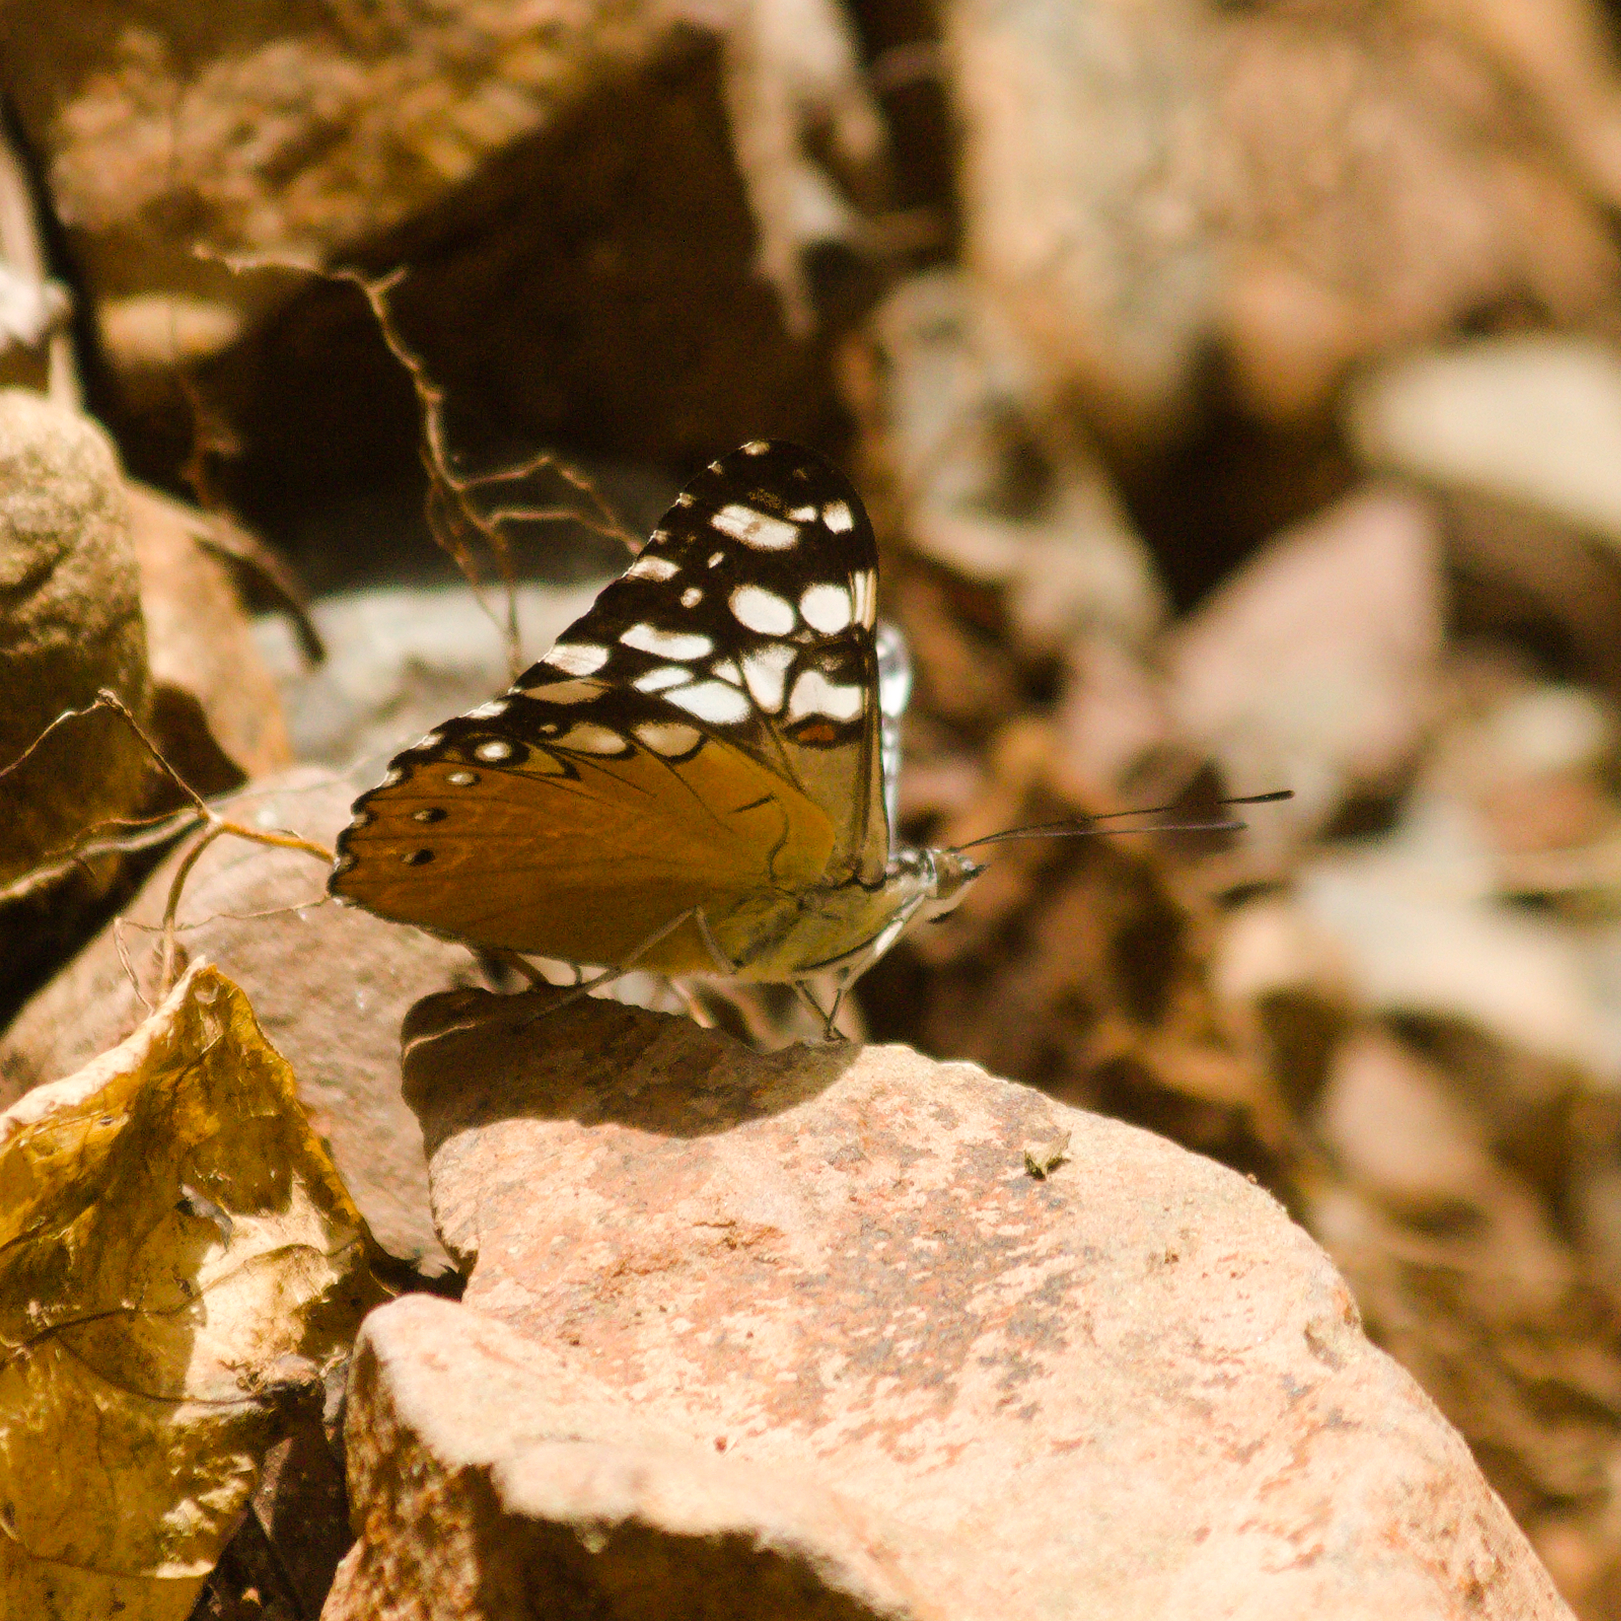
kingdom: Animalia
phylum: Arthropoda
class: Insecta
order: Lepidoptera
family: Nymphalidae
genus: Hamadryas
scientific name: Hamadryas fornax
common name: Orange cracker
